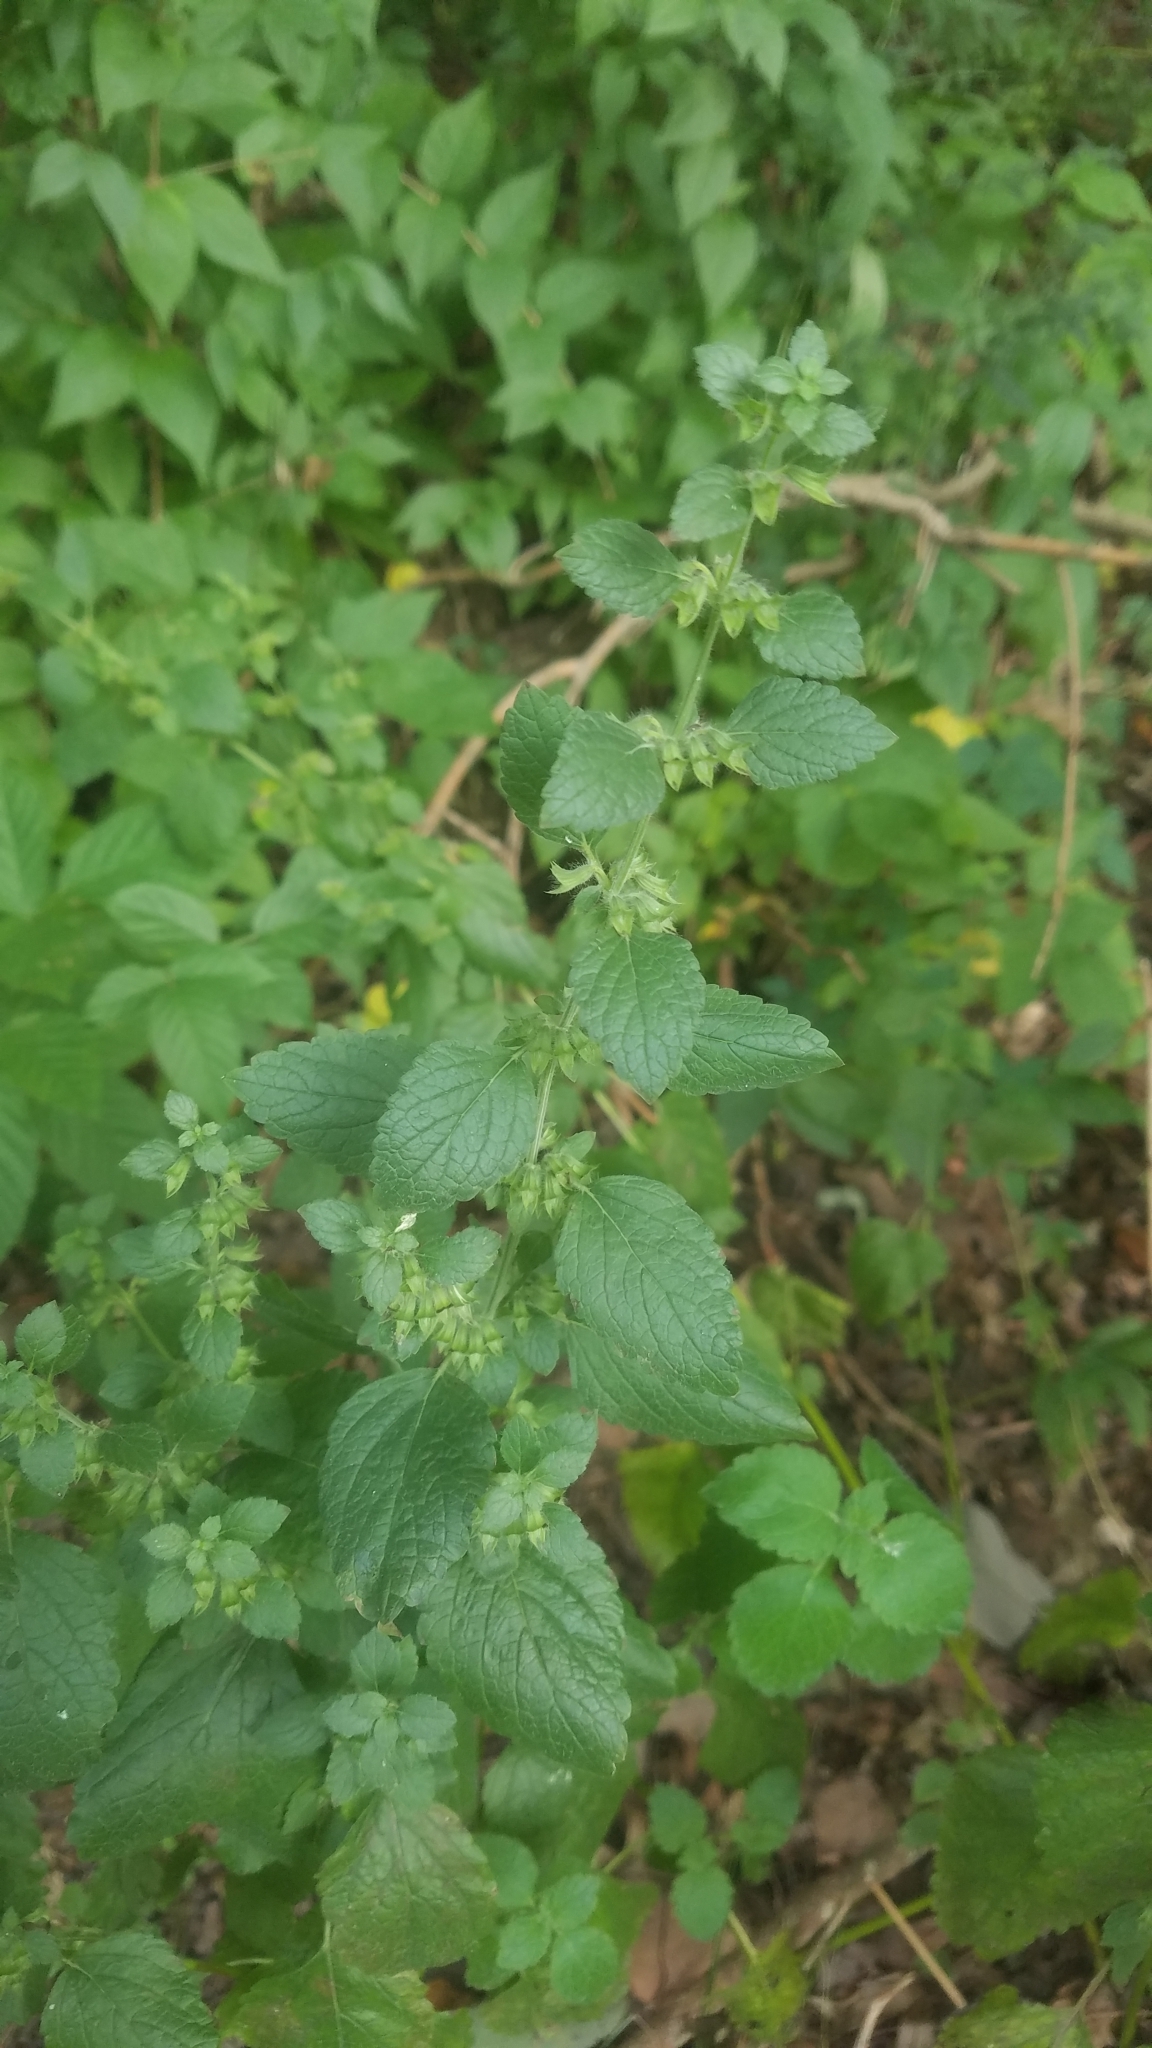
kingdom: Plantae
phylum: Tracheophyta
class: Magnoliopsida
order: Lamiales
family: Lamiaceae
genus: Melissa
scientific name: Melissa officinalis
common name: Balm
